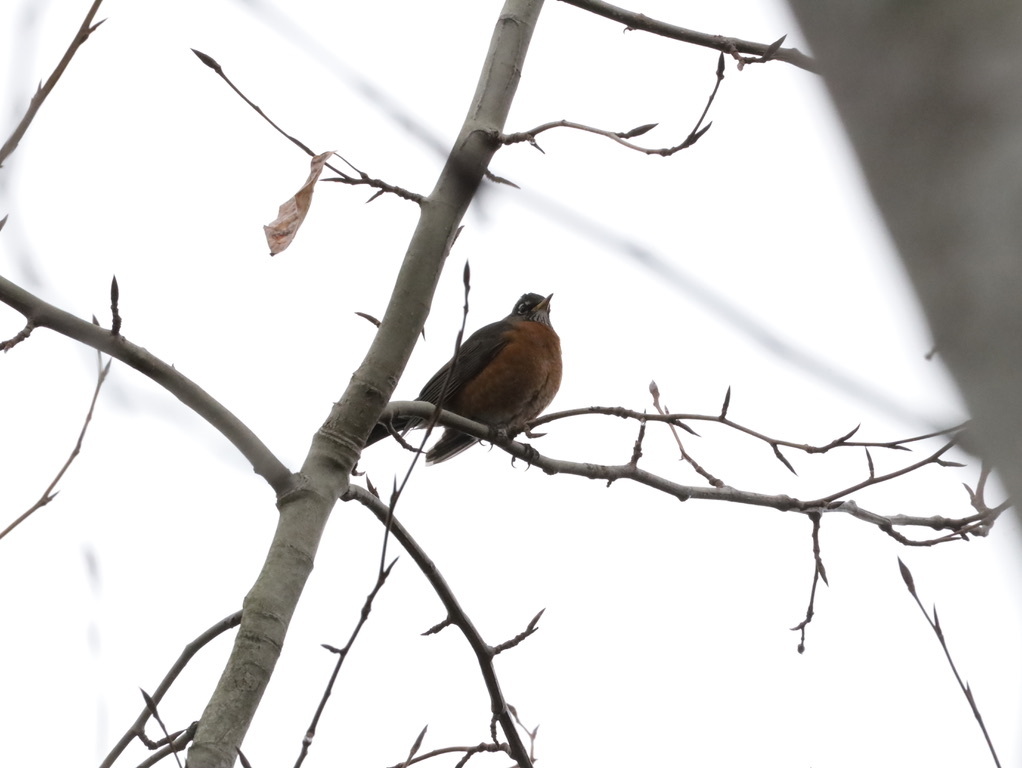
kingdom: Animalia
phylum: Chordata
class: Aves
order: Passeriformes
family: Turdidae
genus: Turdus
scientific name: Turdus migratorius
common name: American robin
